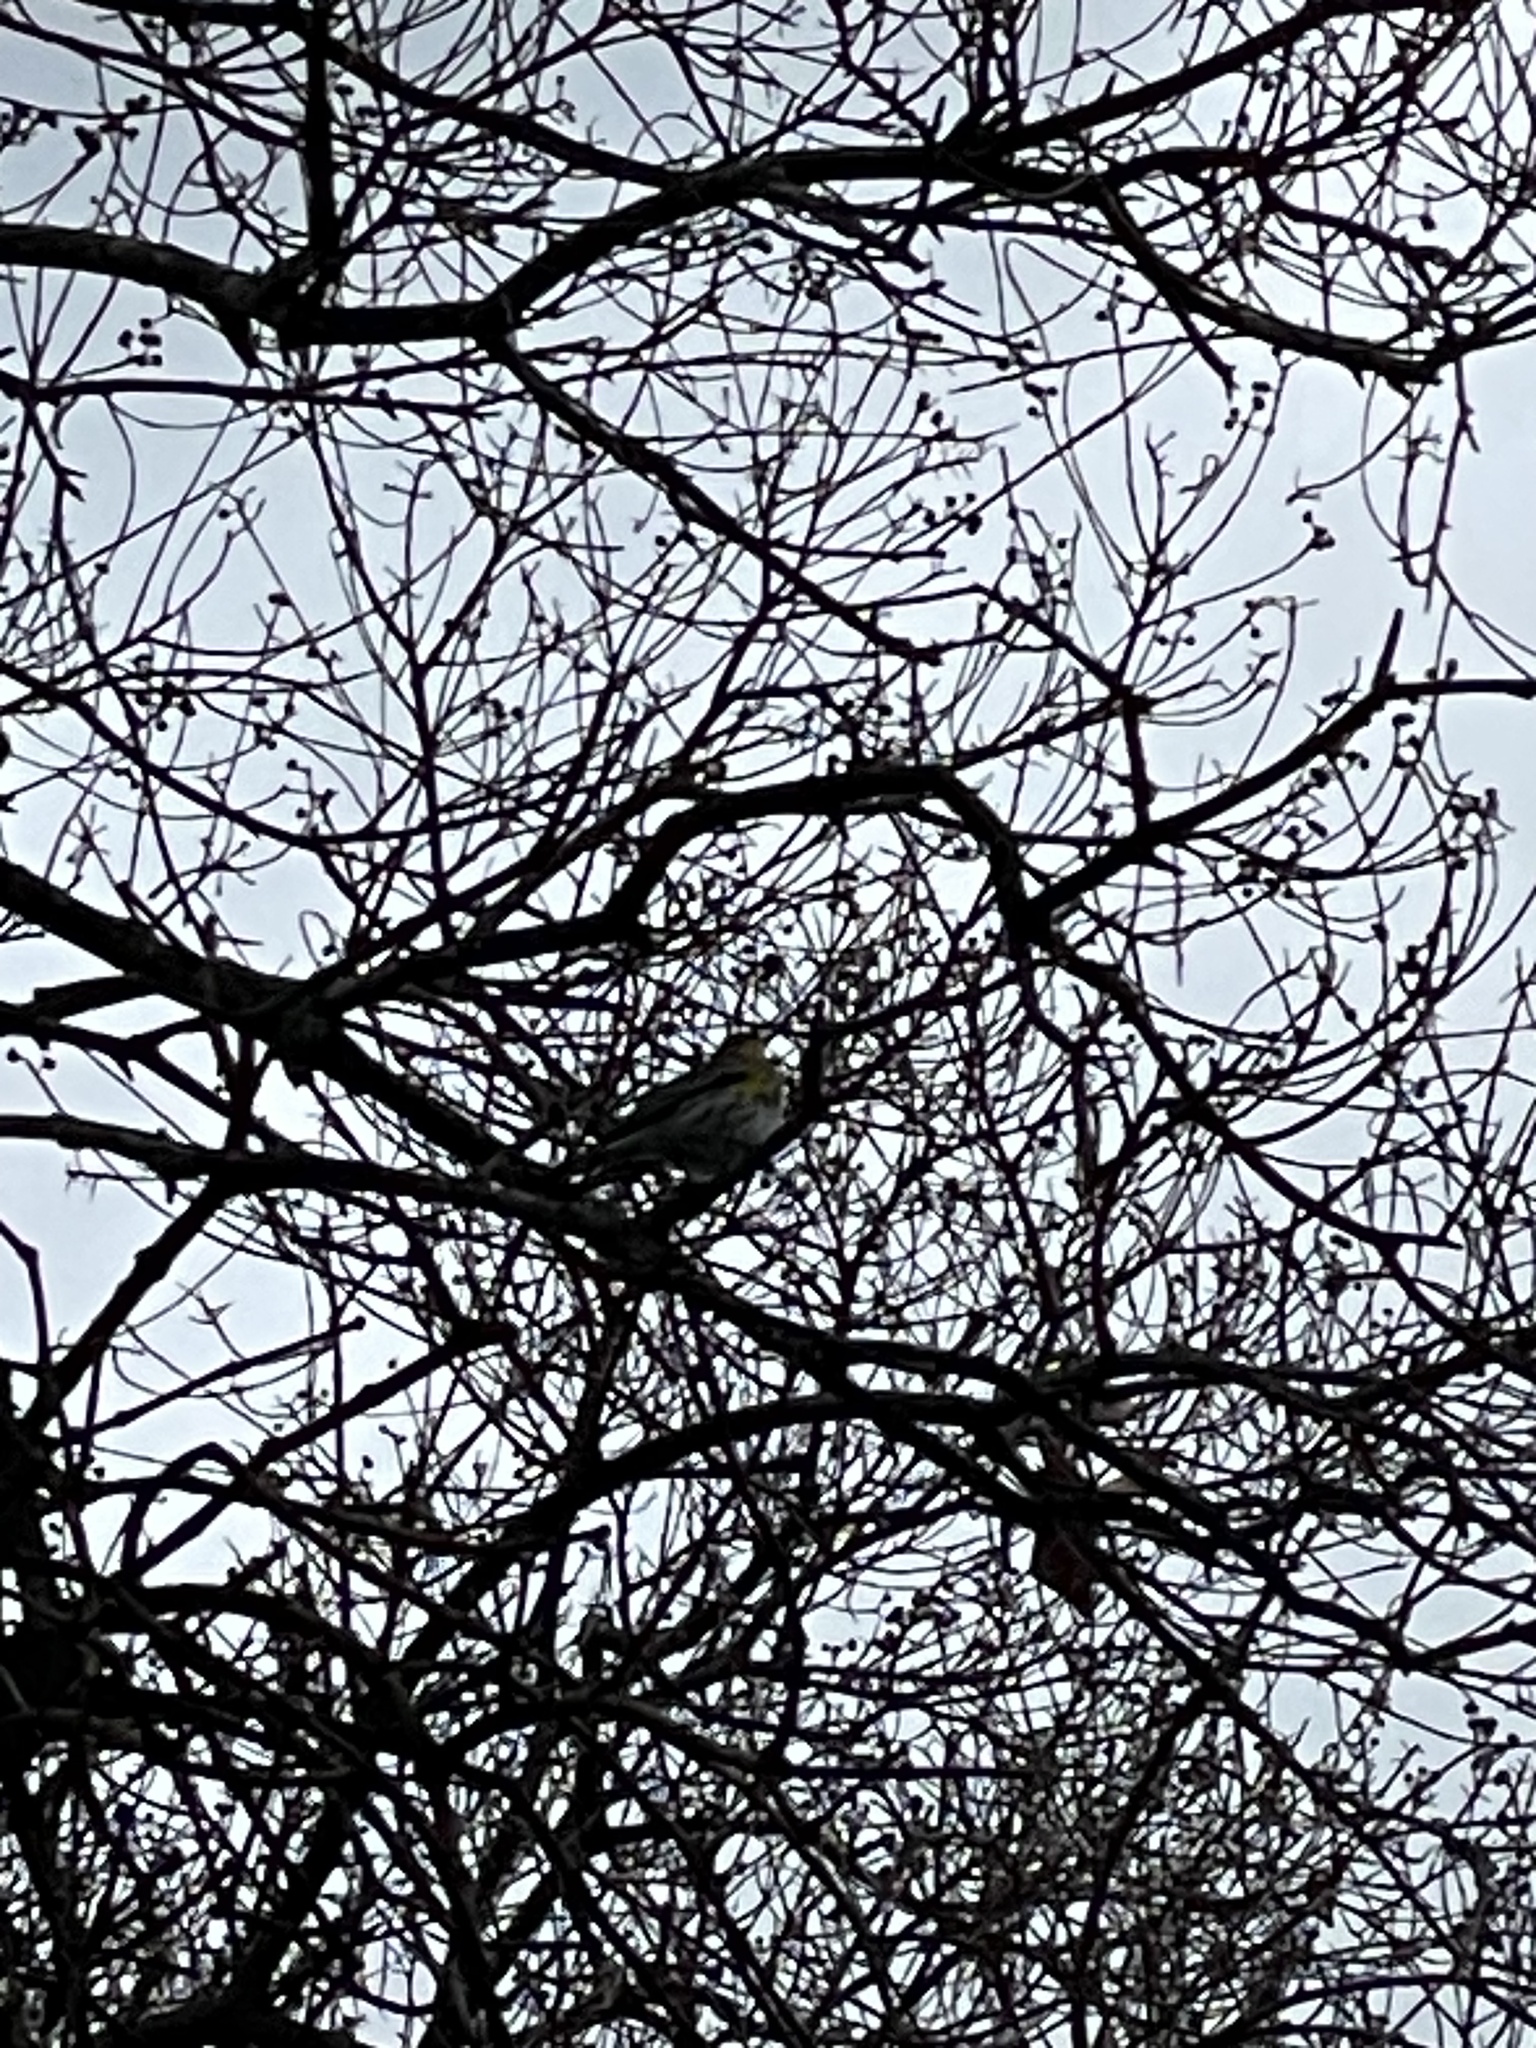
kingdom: Animalia
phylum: Chordata
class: Aves
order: Passeriformes
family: Parulidae
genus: Setophaga
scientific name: Setophaga coronata
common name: Myrtle warbler
